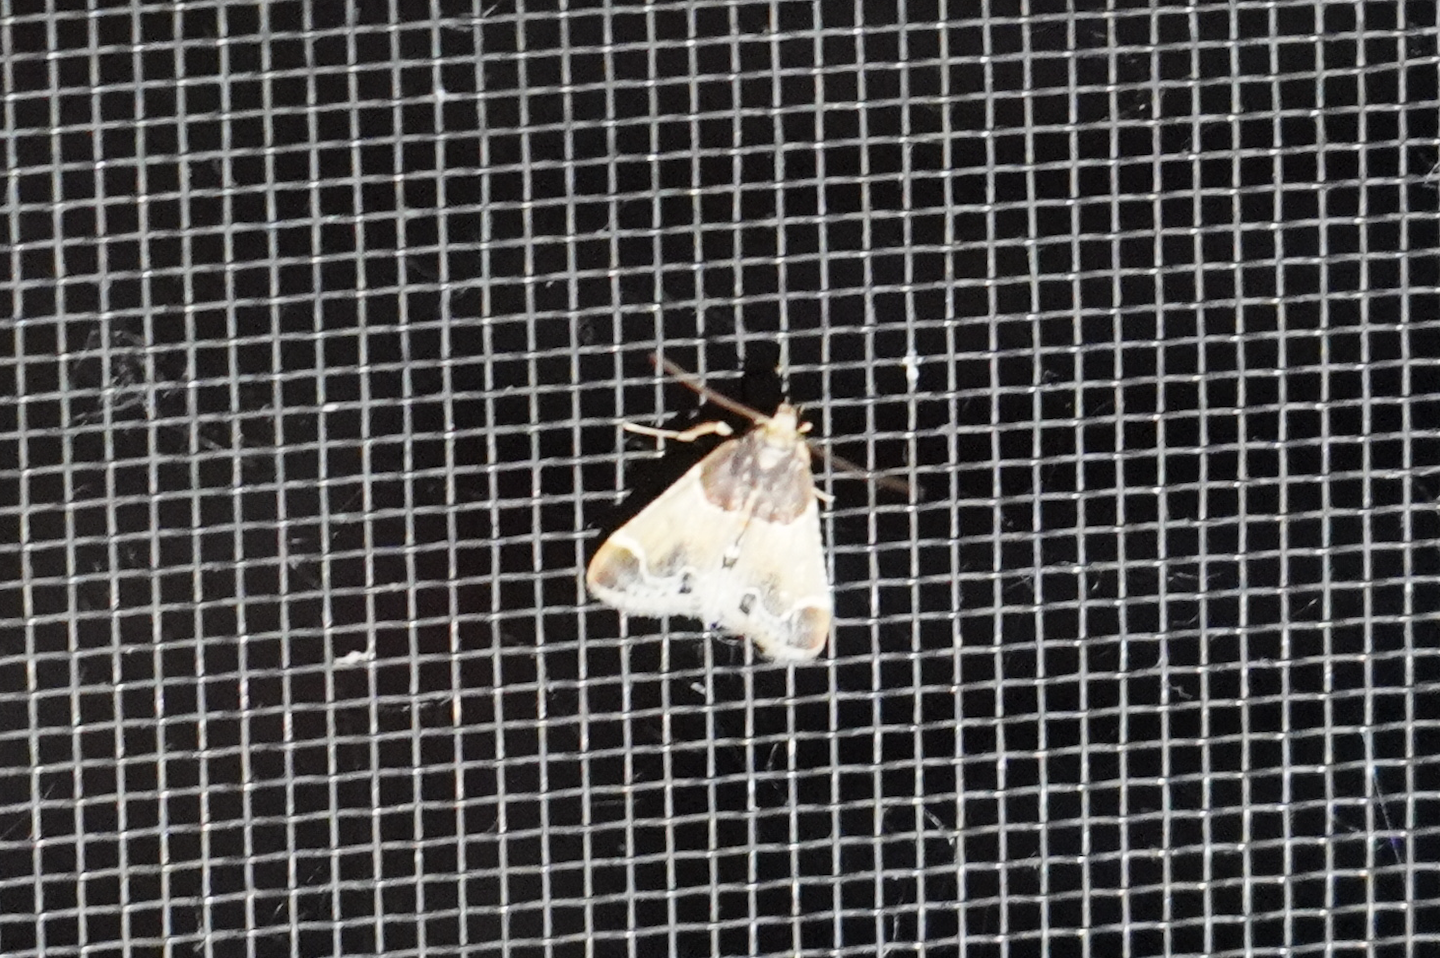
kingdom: Animalia
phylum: Arthropoda
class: Insecta
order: Lepidoptera
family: Pyralidae
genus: Pyralis
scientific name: Pyralis farinalis
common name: Meal moth
